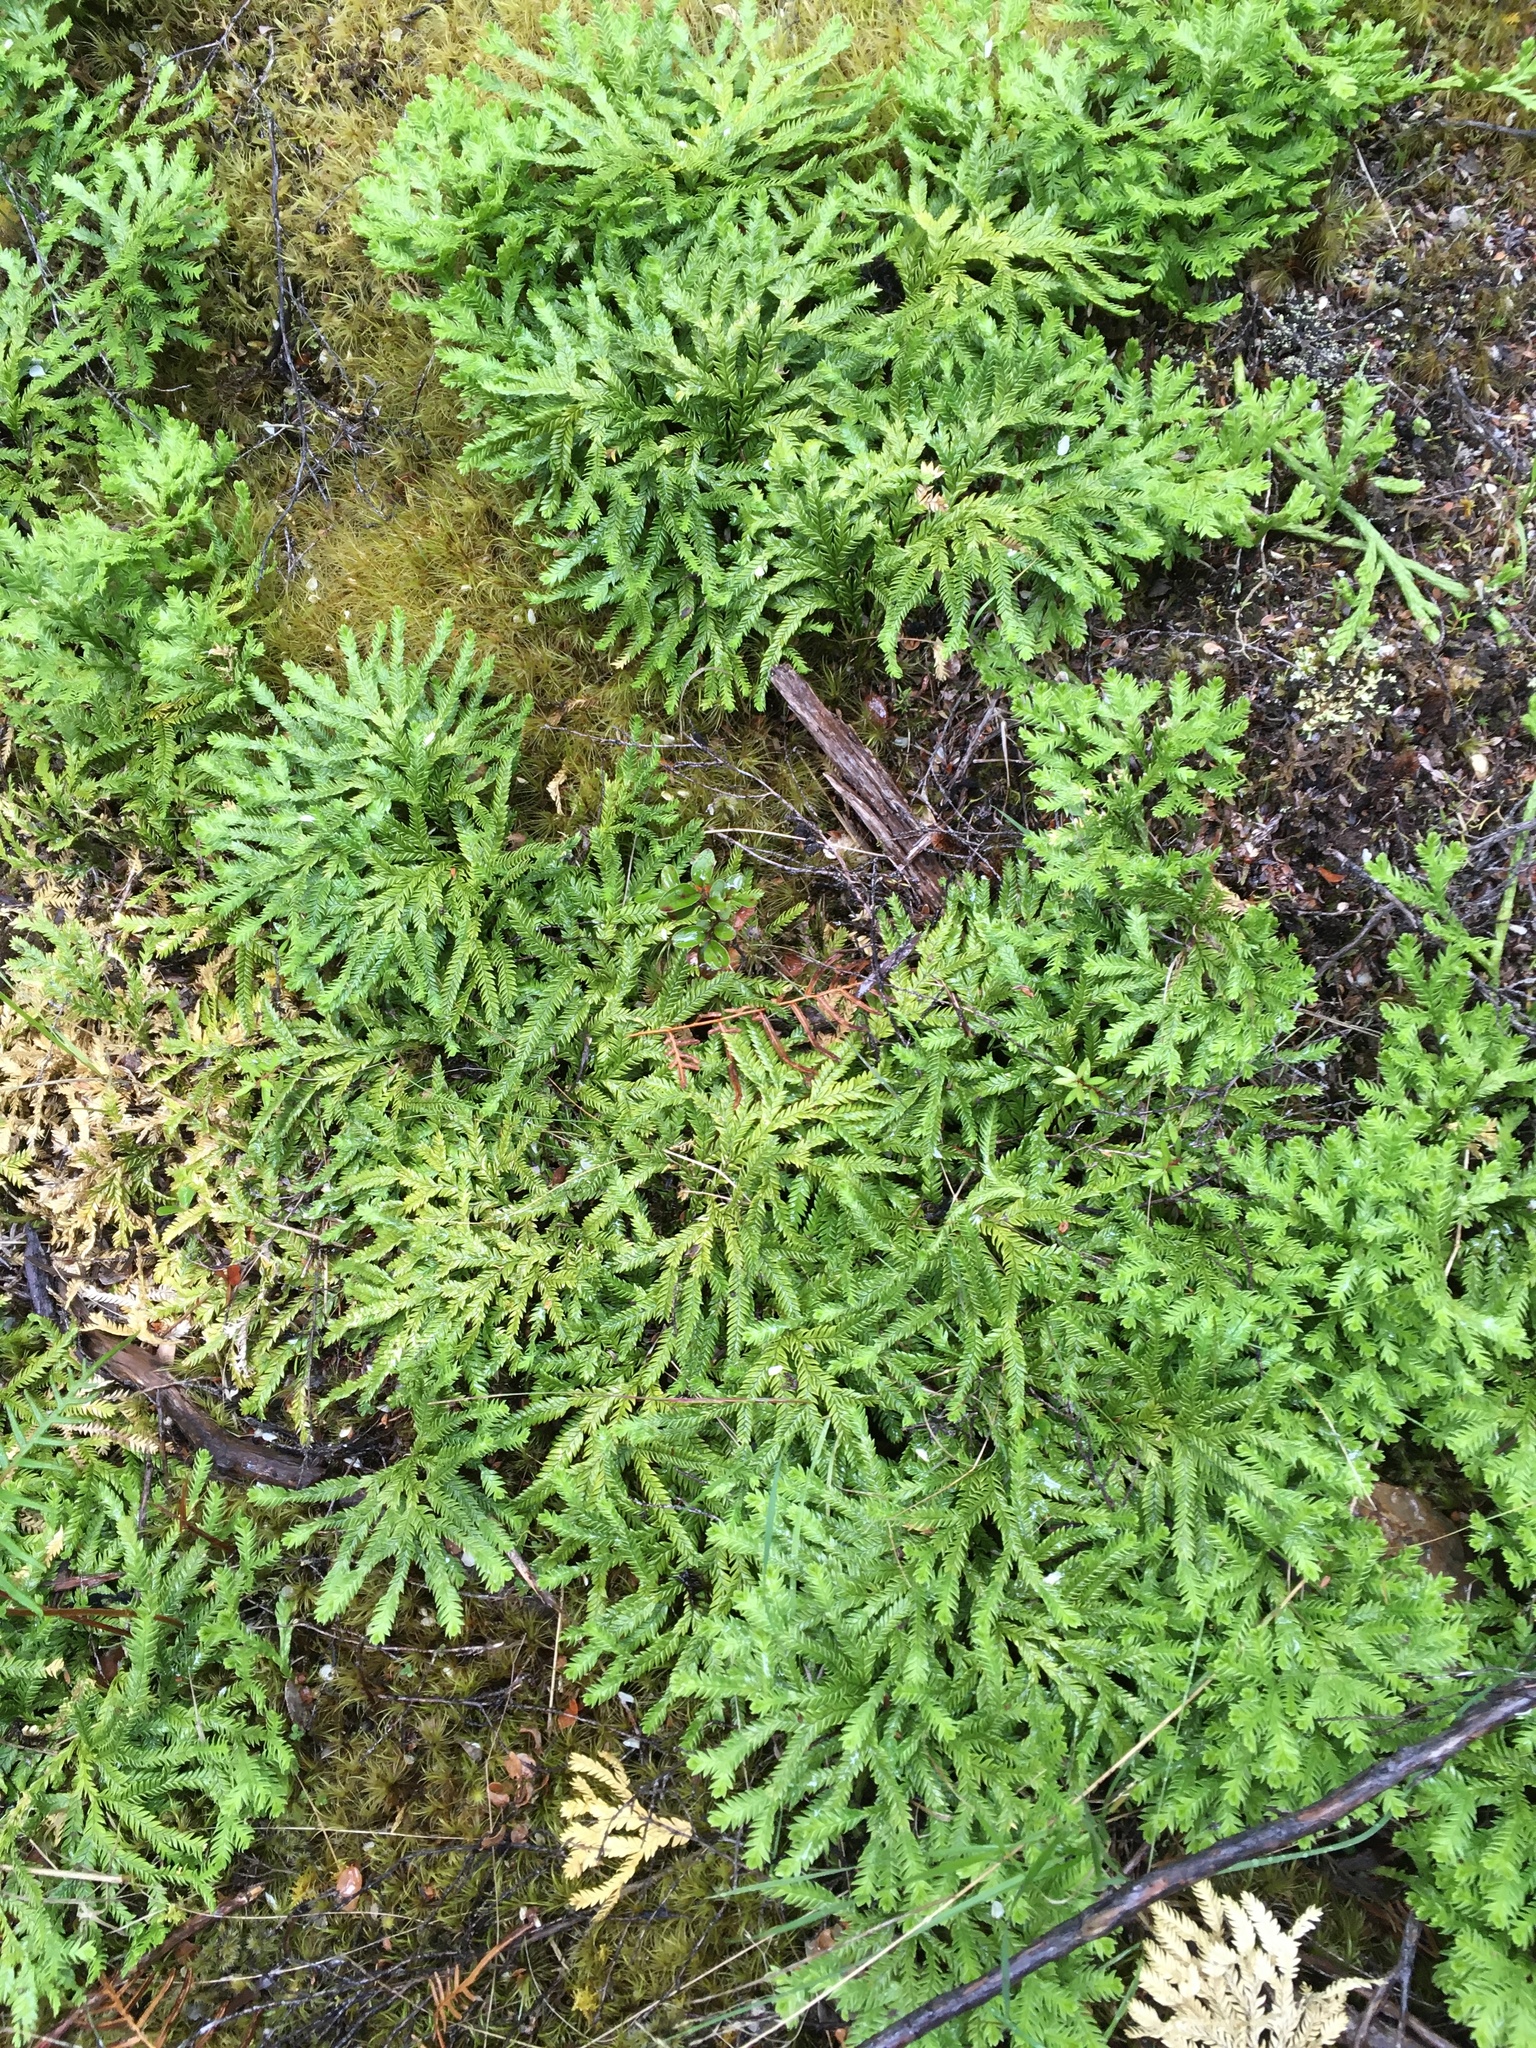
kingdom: Plantae
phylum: Tracheophyta
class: Lycopodiopsida
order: Lycopodiales
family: Lycopodiaceae
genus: Diphasium
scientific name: Diphasium scariosum
